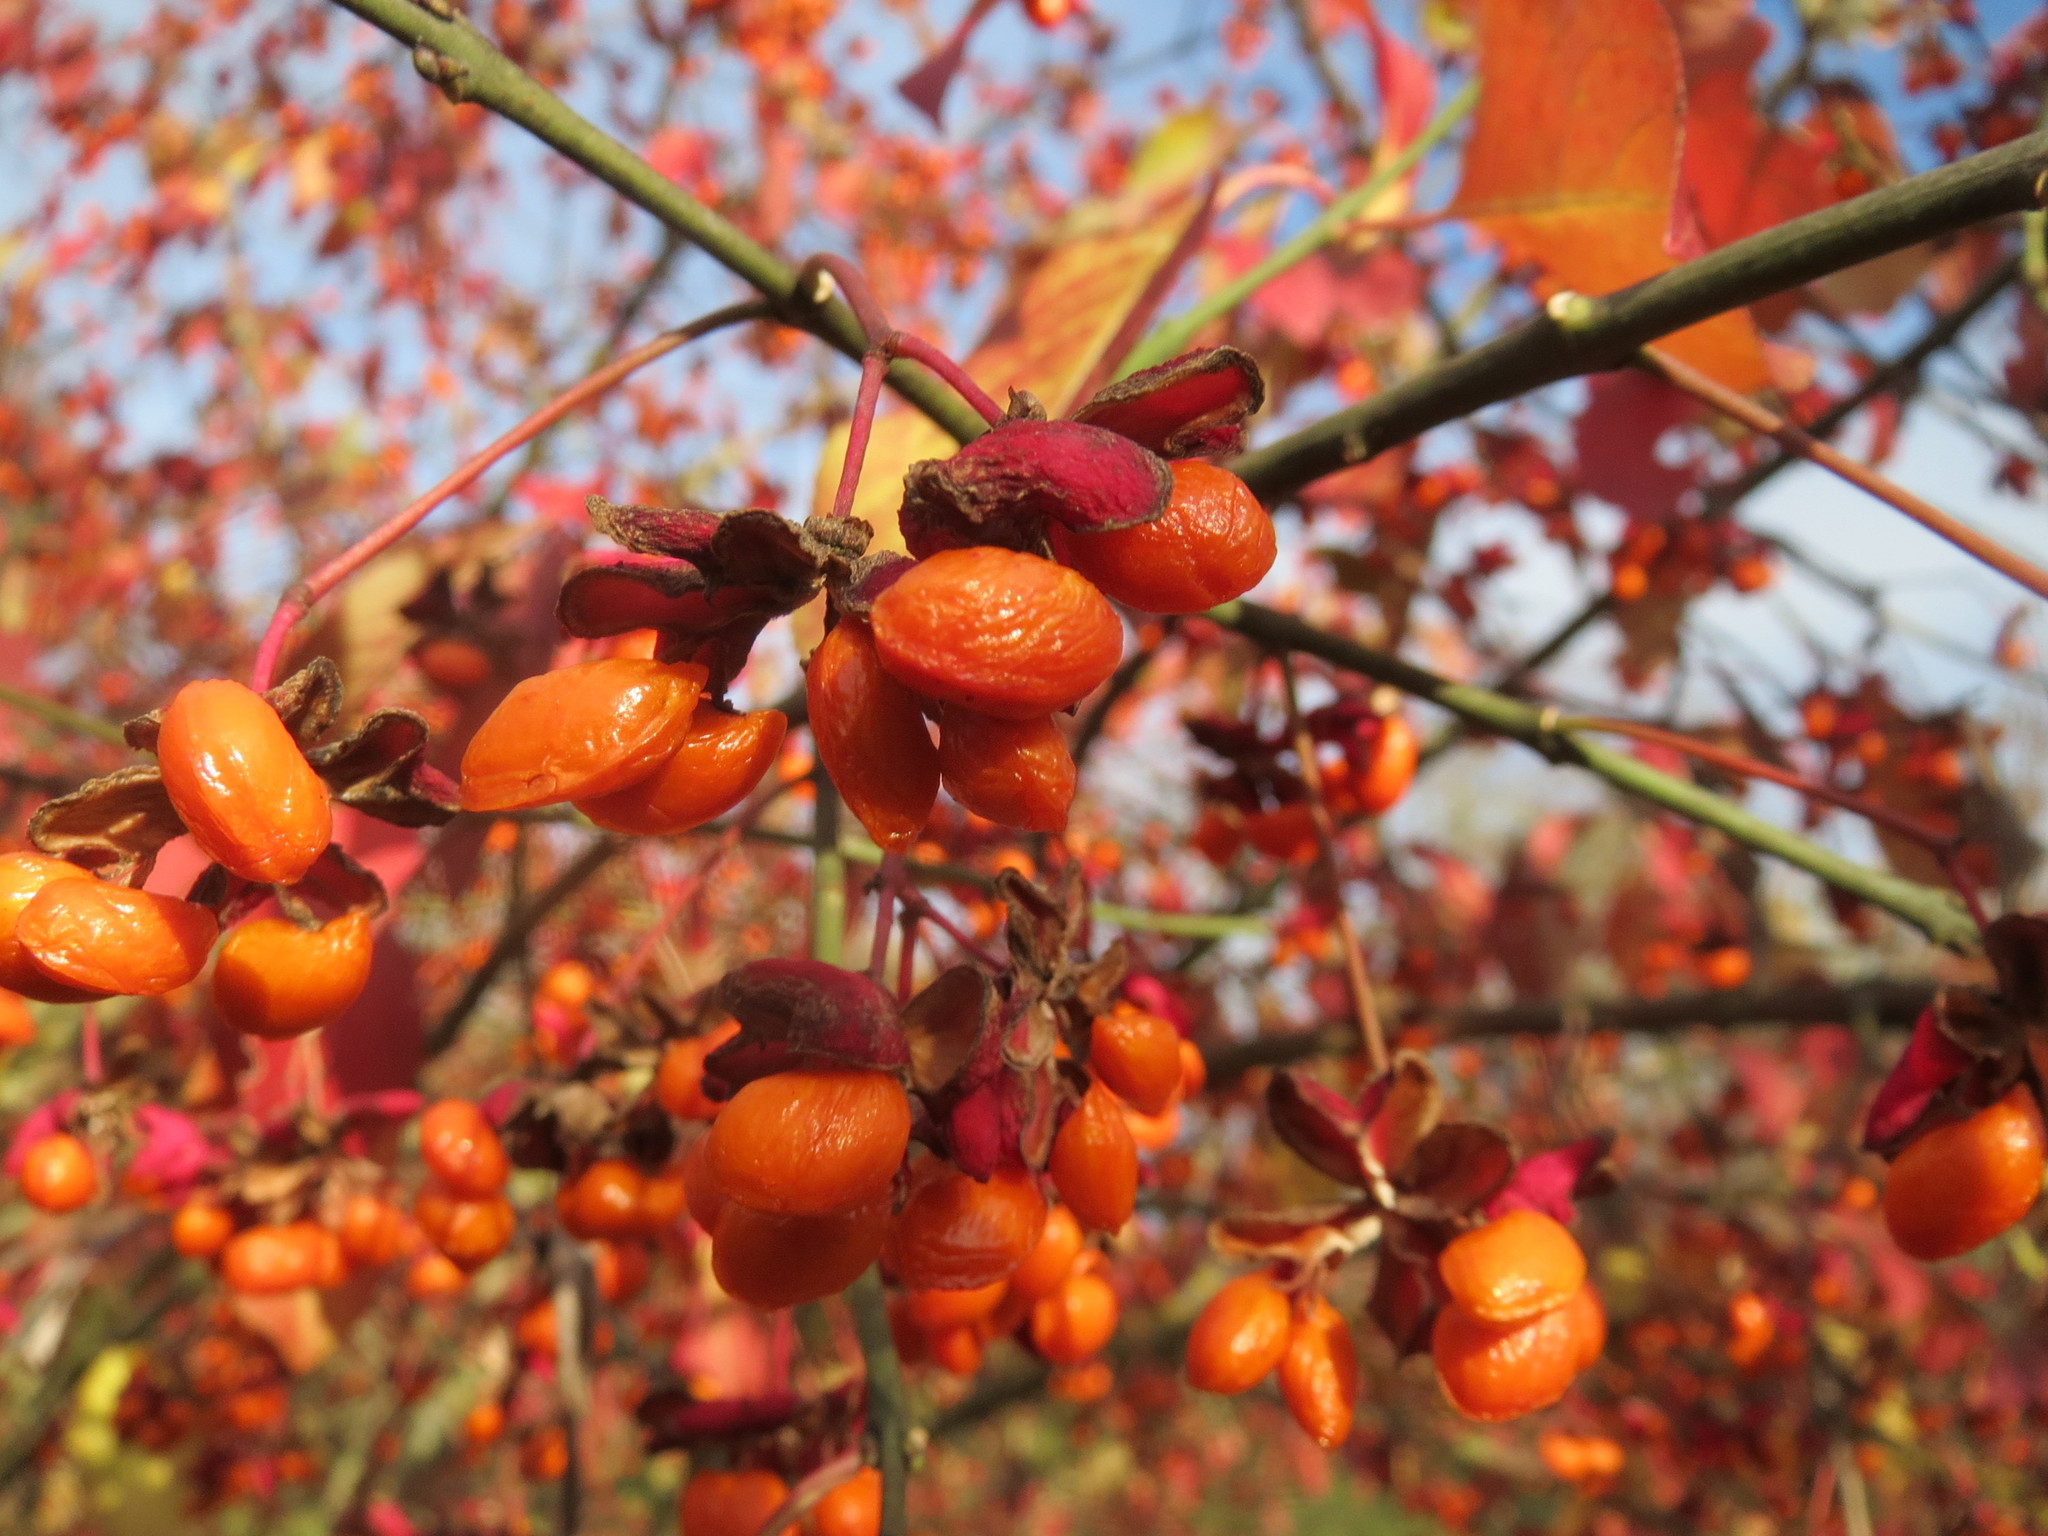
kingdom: Plantae
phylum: Tracheophyta
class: Magnoliopsida
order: Celastrales
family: Celastraceae
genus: Euonymus
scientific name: Euonymus europaeus
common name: Spindle
